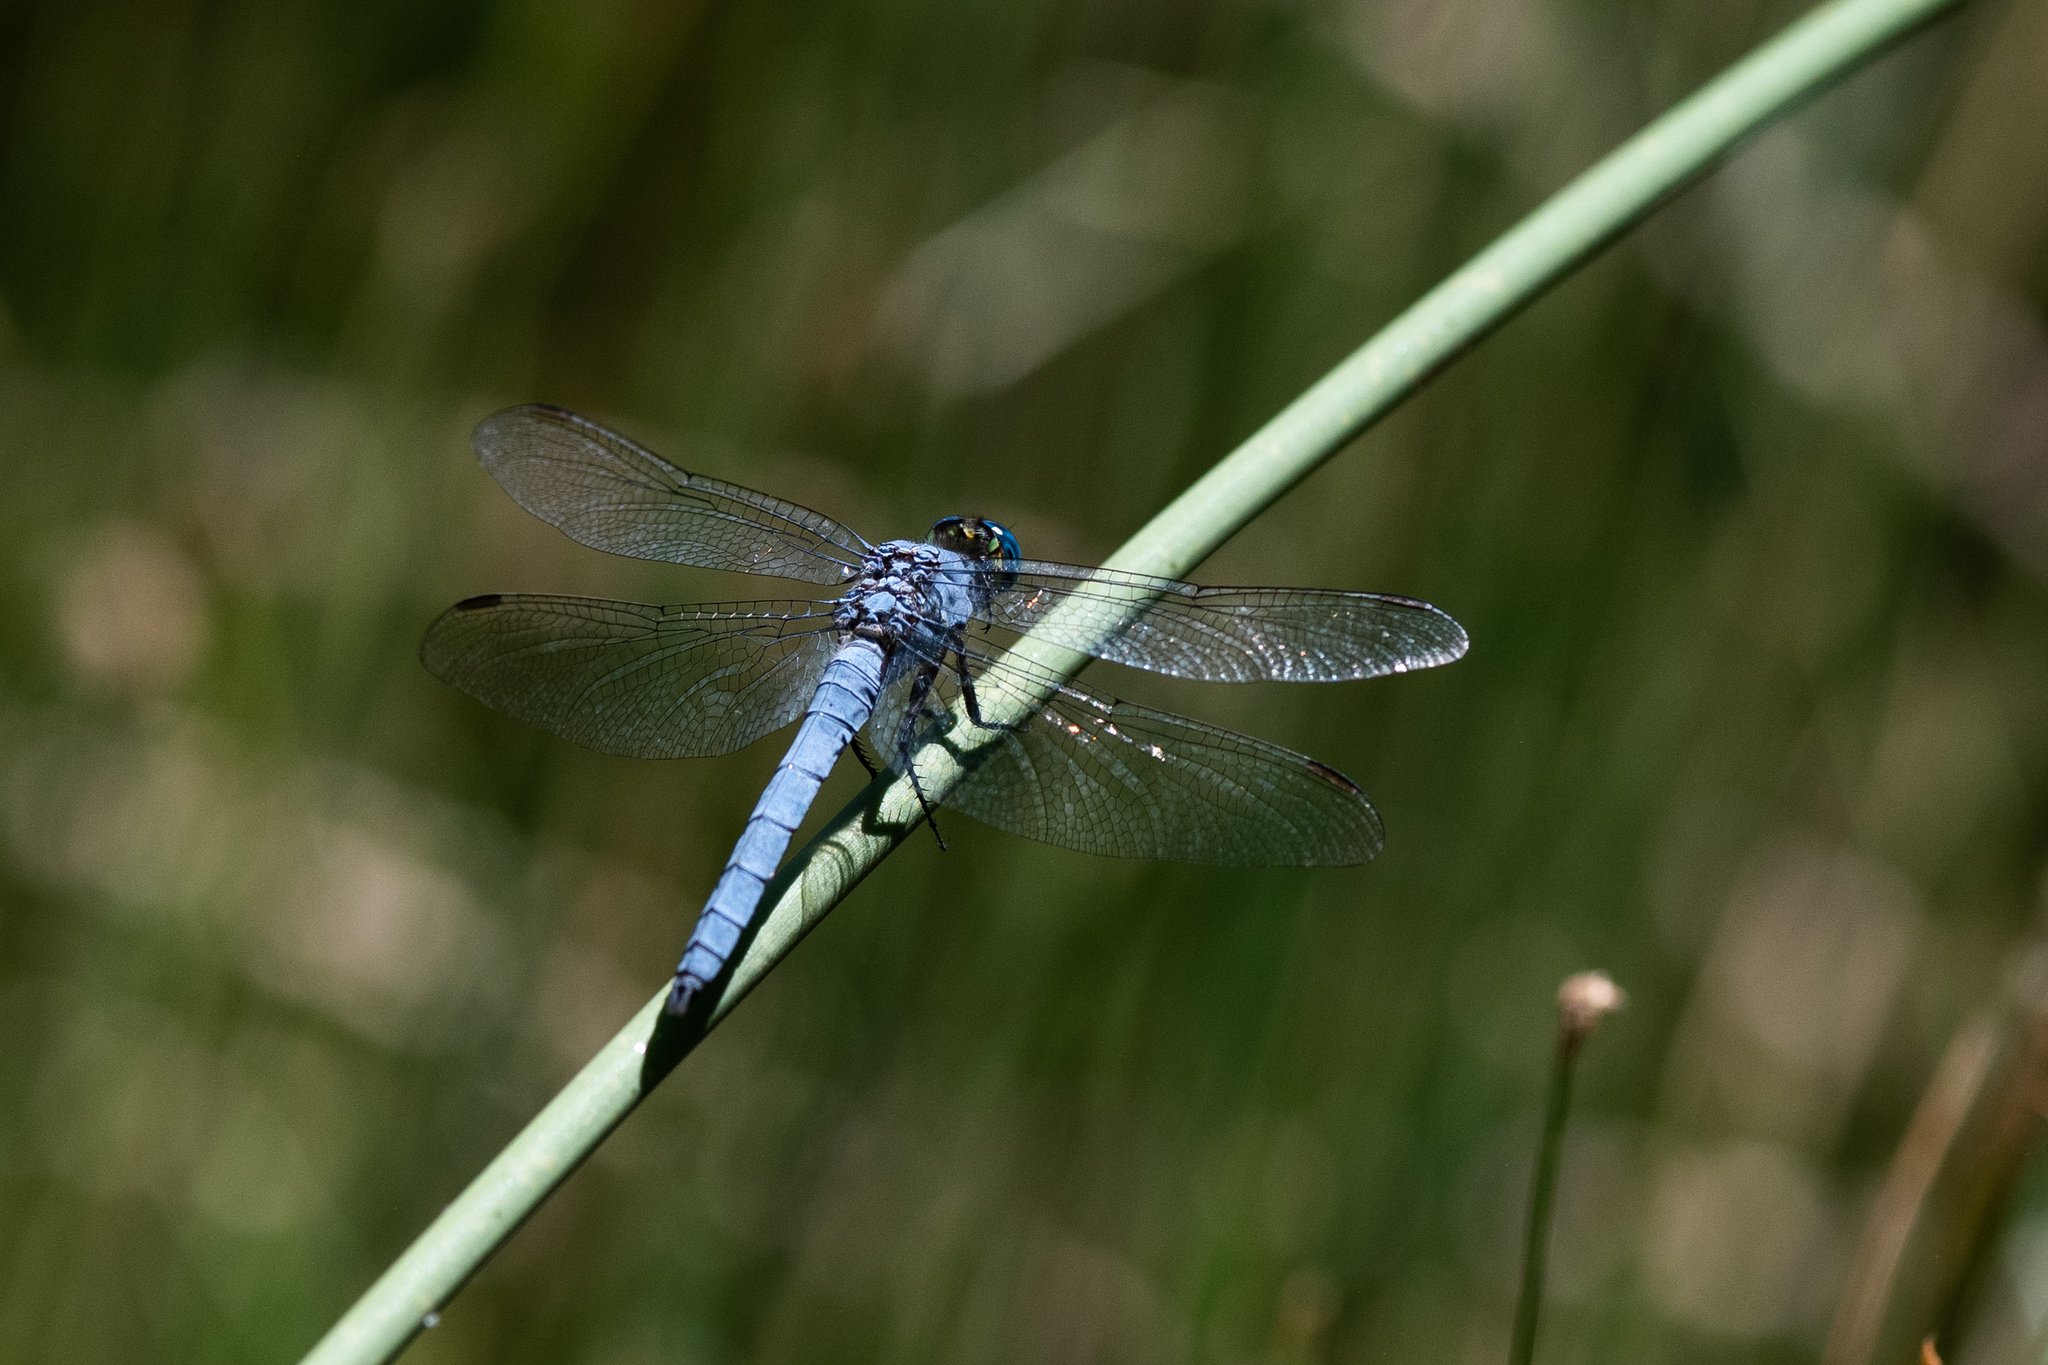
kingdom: Animalia
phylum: Arthropoda
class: Insecta
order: Odonata
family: Libellulidae
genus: Erythemis
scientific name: Erythemis collocata
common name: Western pondhawk
